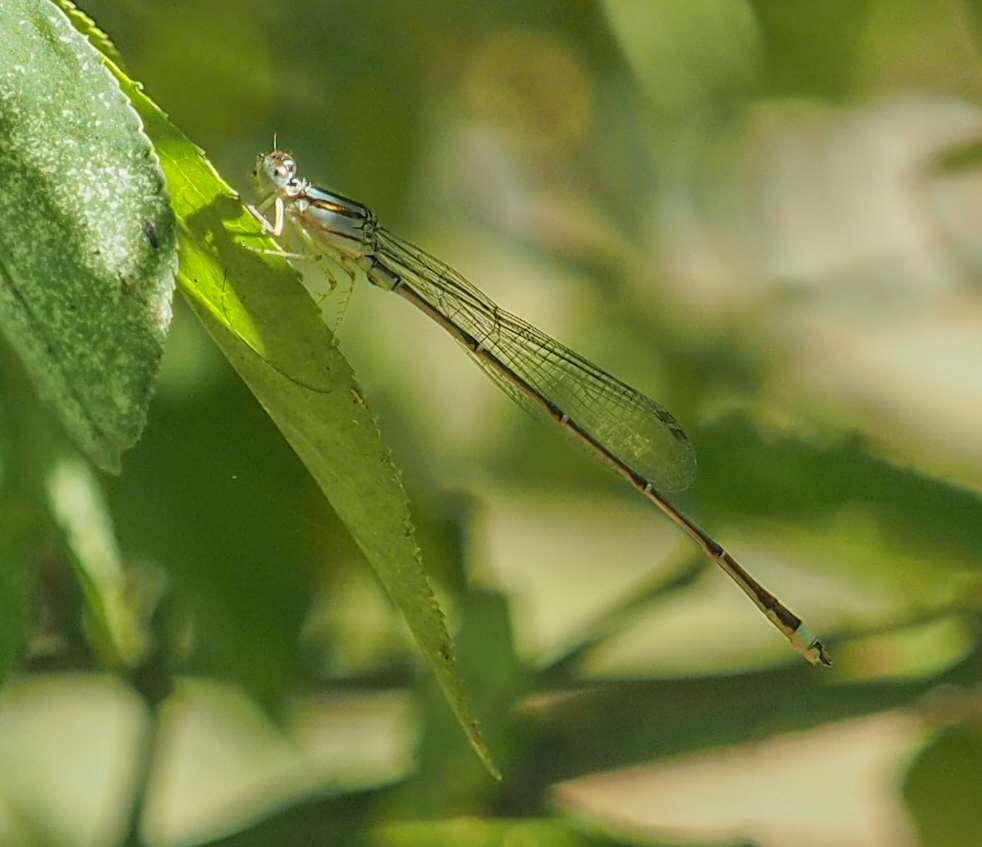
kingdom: Animalia
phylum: Arthropoda
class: Insecta
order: Odonata
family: Coenagrionidae
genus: Enallagma
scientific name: Enallagma signatum
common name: Orange bluet
